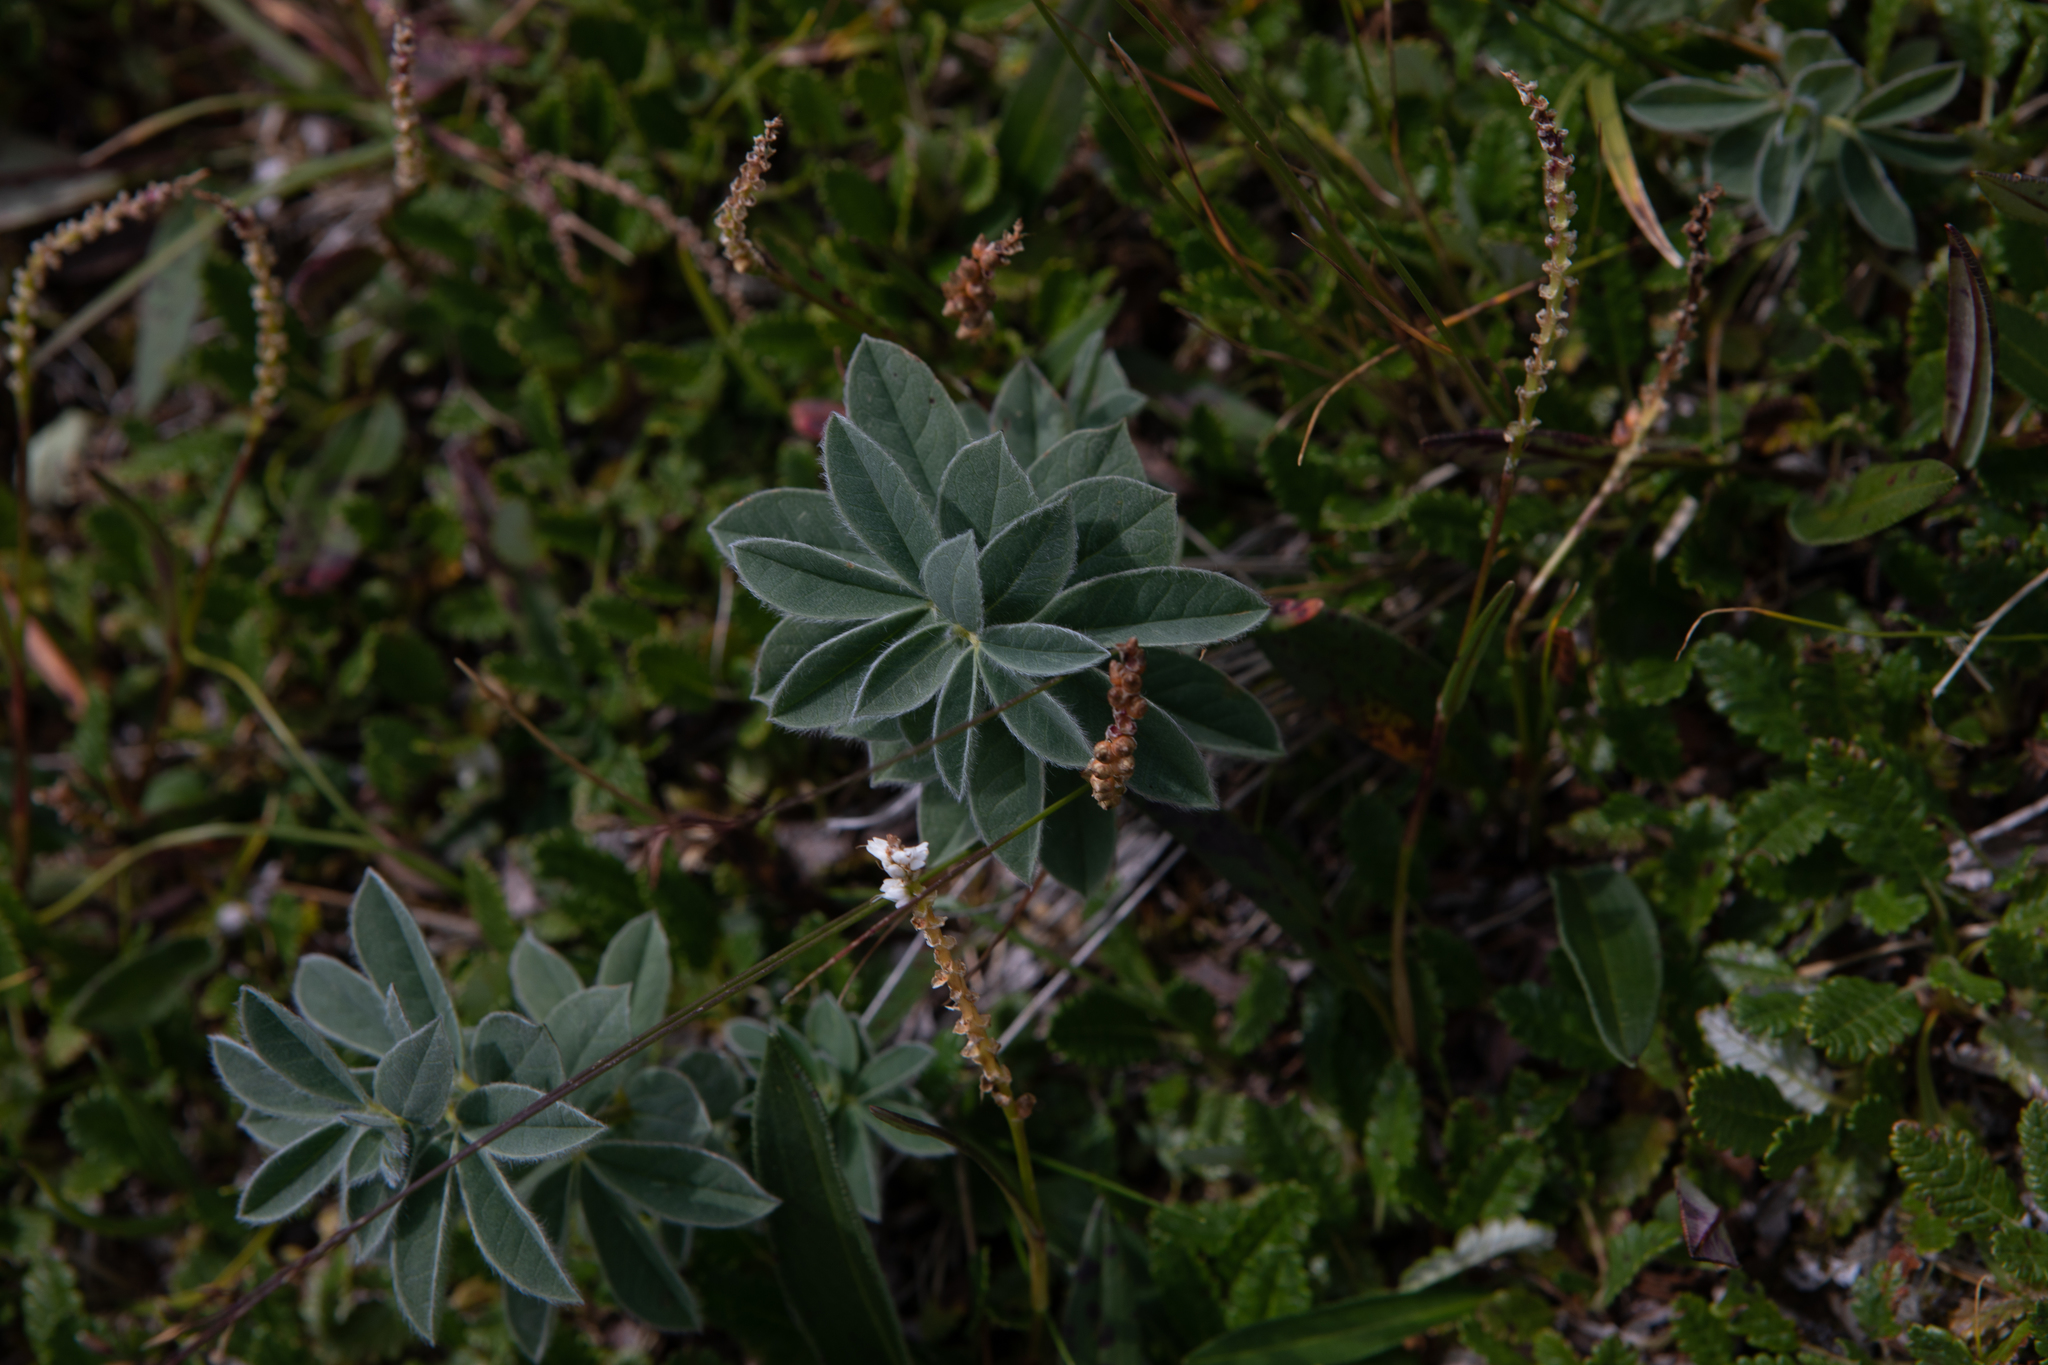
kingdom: Plantae
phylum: Tracheophyta
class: Magnoliopsida
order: Fabales
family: Fabaceae
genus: Thermopsis
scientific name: Thermopsis alpina
